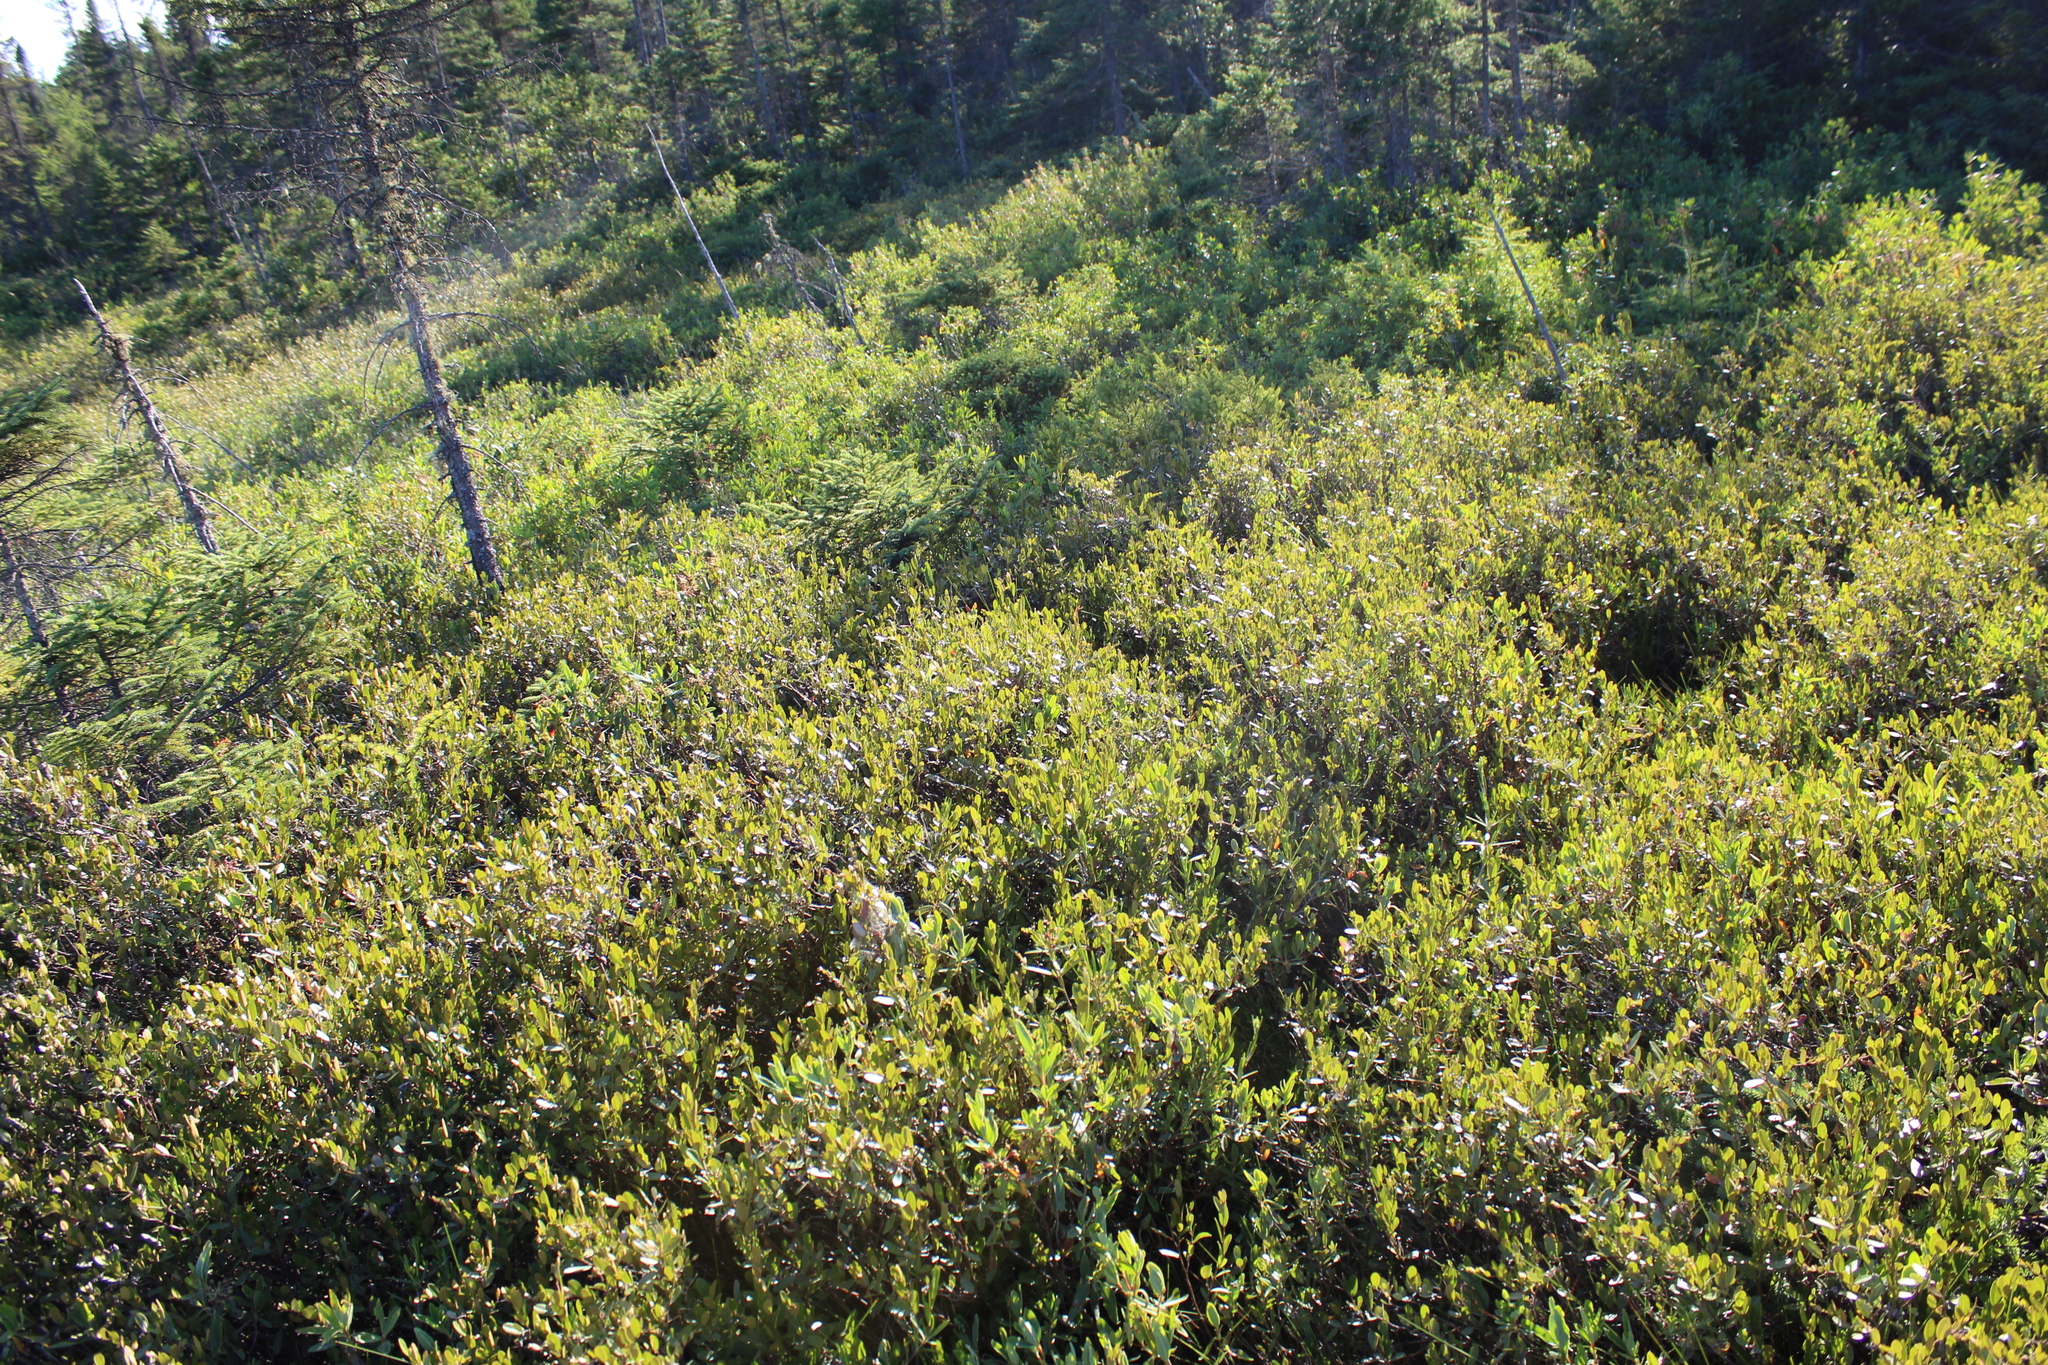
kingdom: Plantae
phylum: Tracheophyta
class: Magnoliopsida
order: Ericales
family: Ericaceae
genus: Chamaedaphne
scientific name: Chamaedaphne calyculata
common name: Leatherleaf
